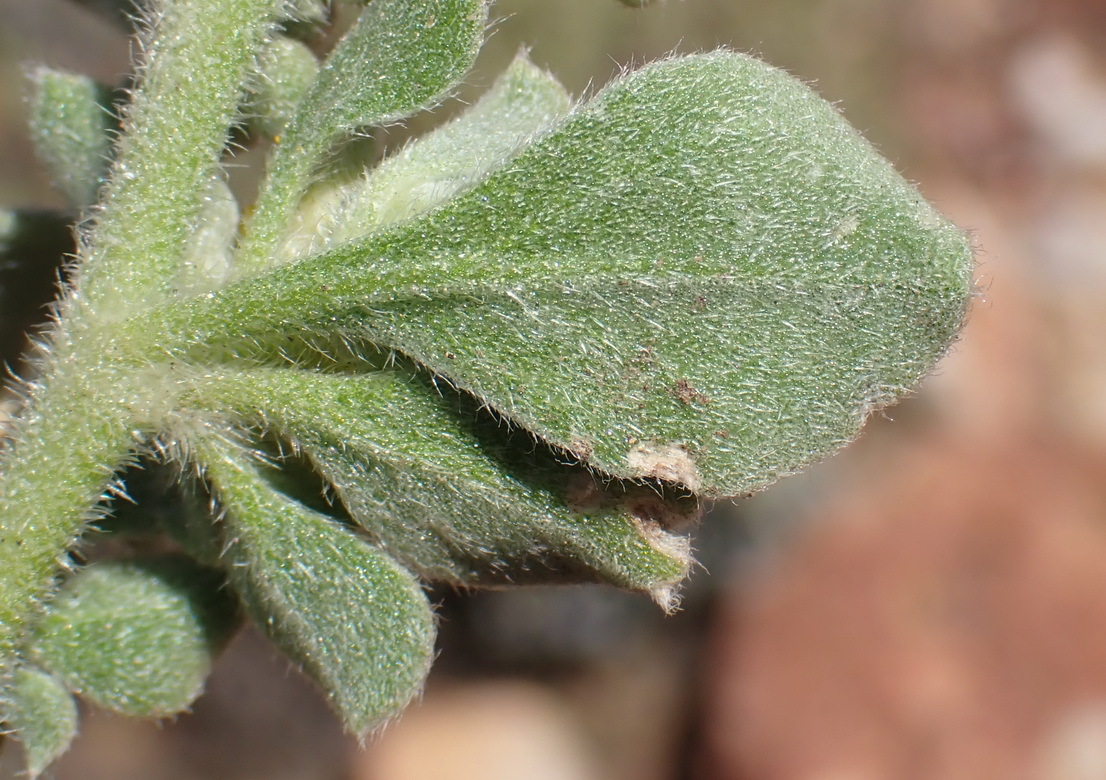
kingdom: Plantae
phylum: Tracheophyta
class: Magnoliopsida
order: Caryophyllales
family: Aizoaceae
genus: Aizoon
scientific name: Aizoon glinoides
